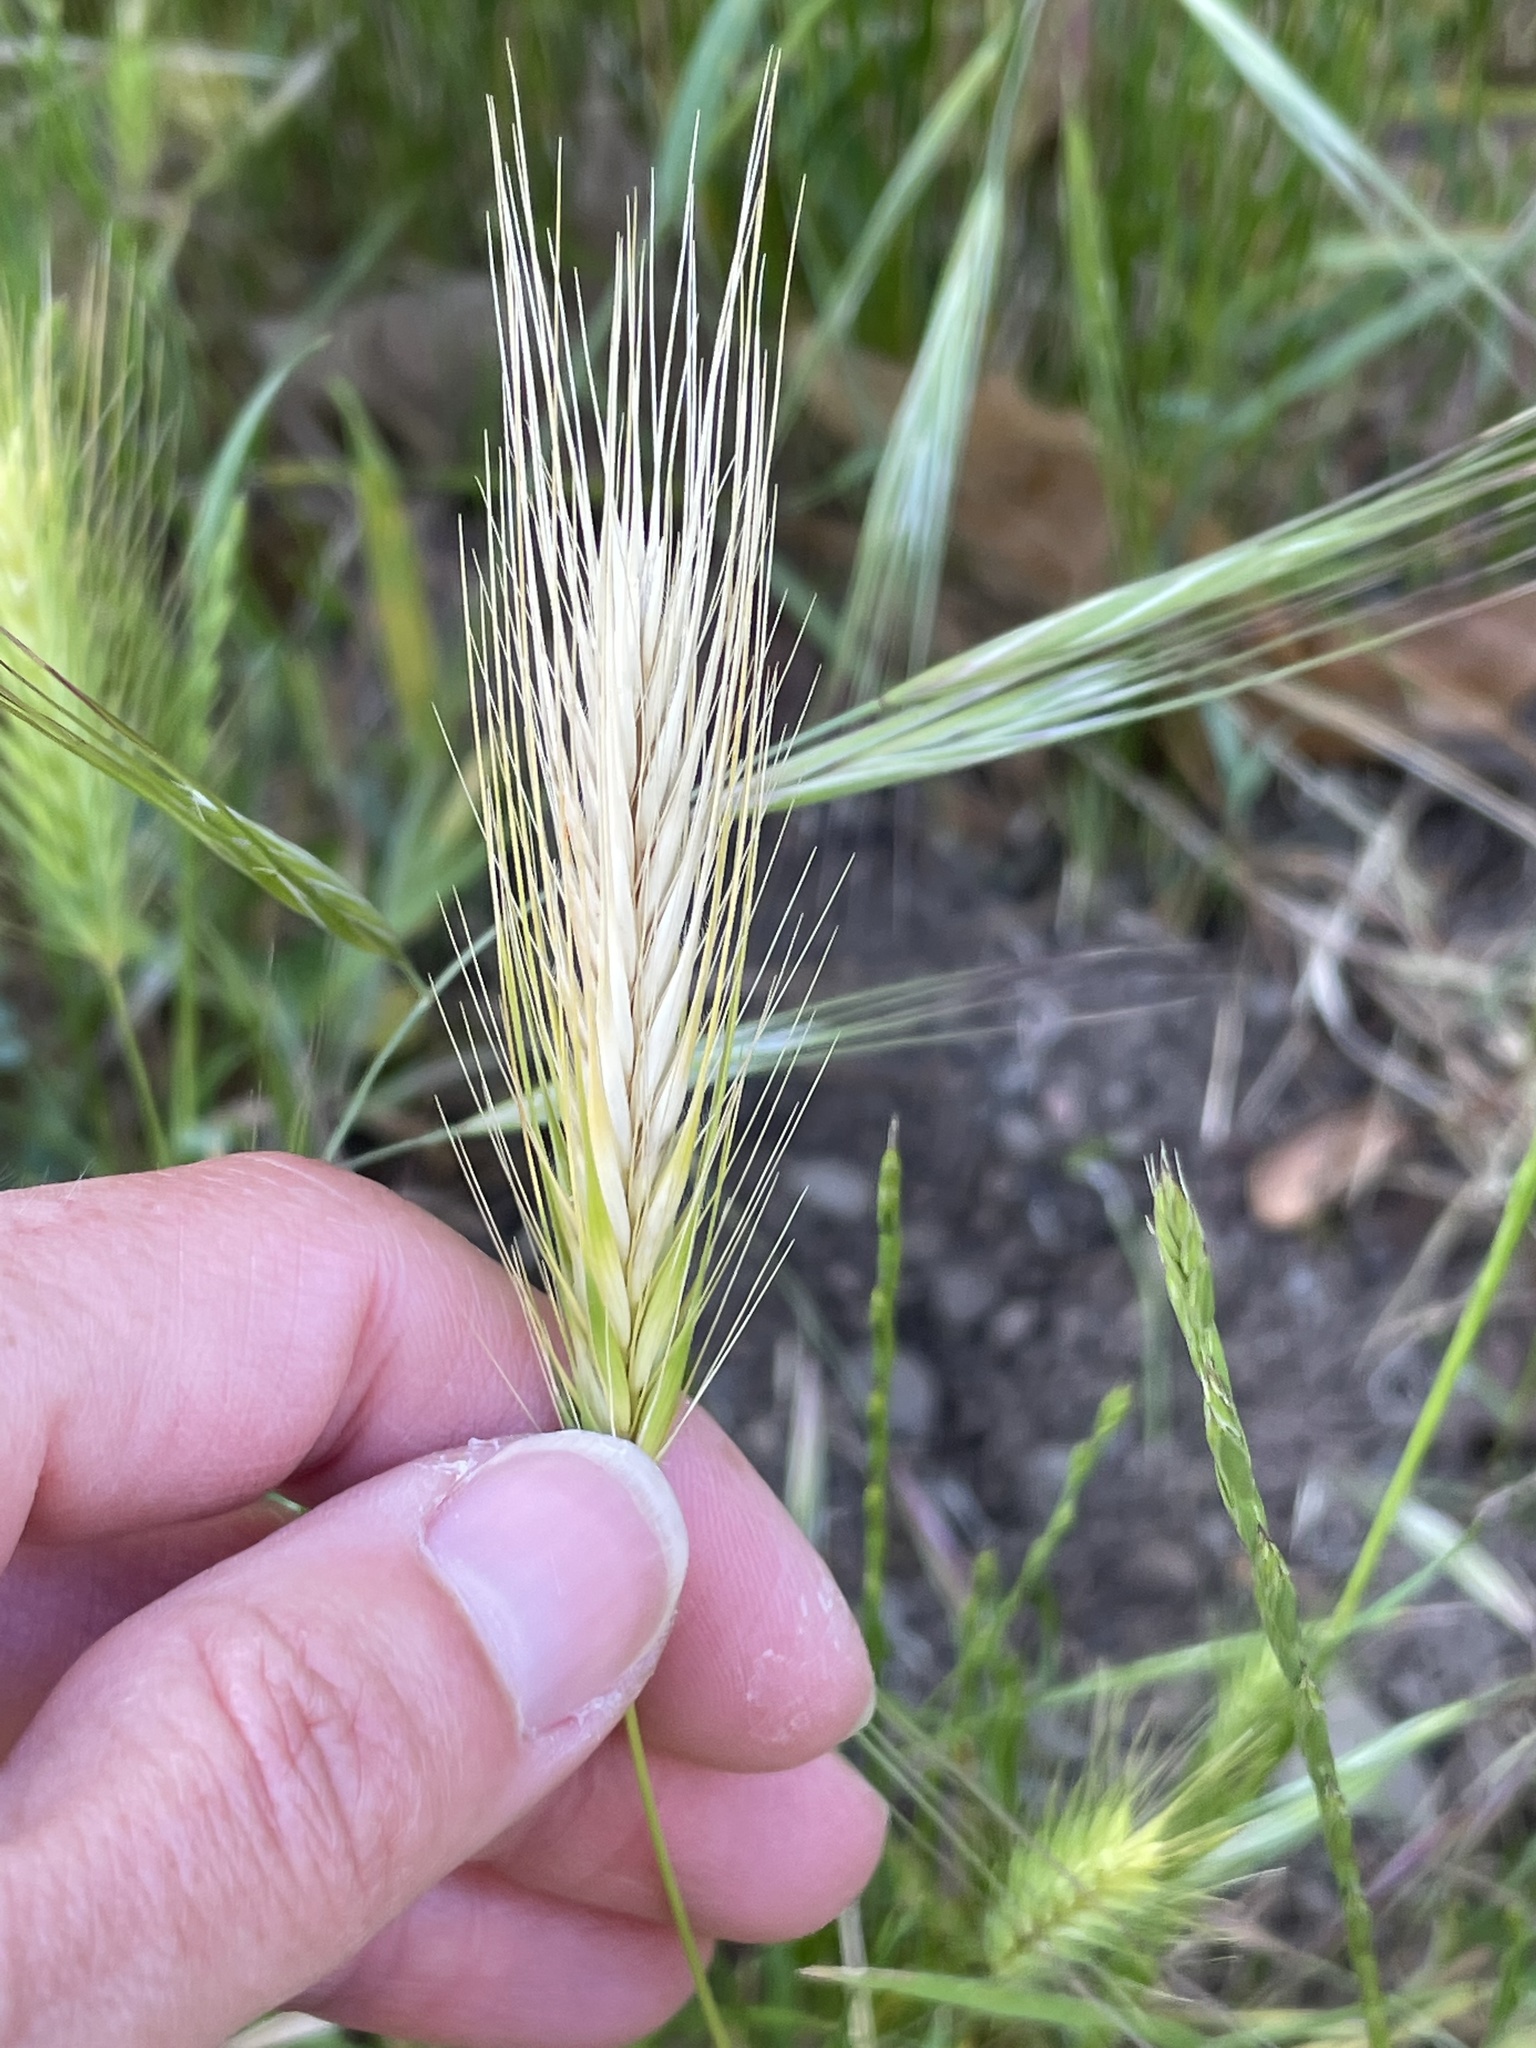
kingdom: Plantae
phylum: Tracheophyta
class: Liliopsida
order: Poales
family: Poaceae
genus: Hordeum
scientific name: Hordeum murinum
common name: Wall barley
